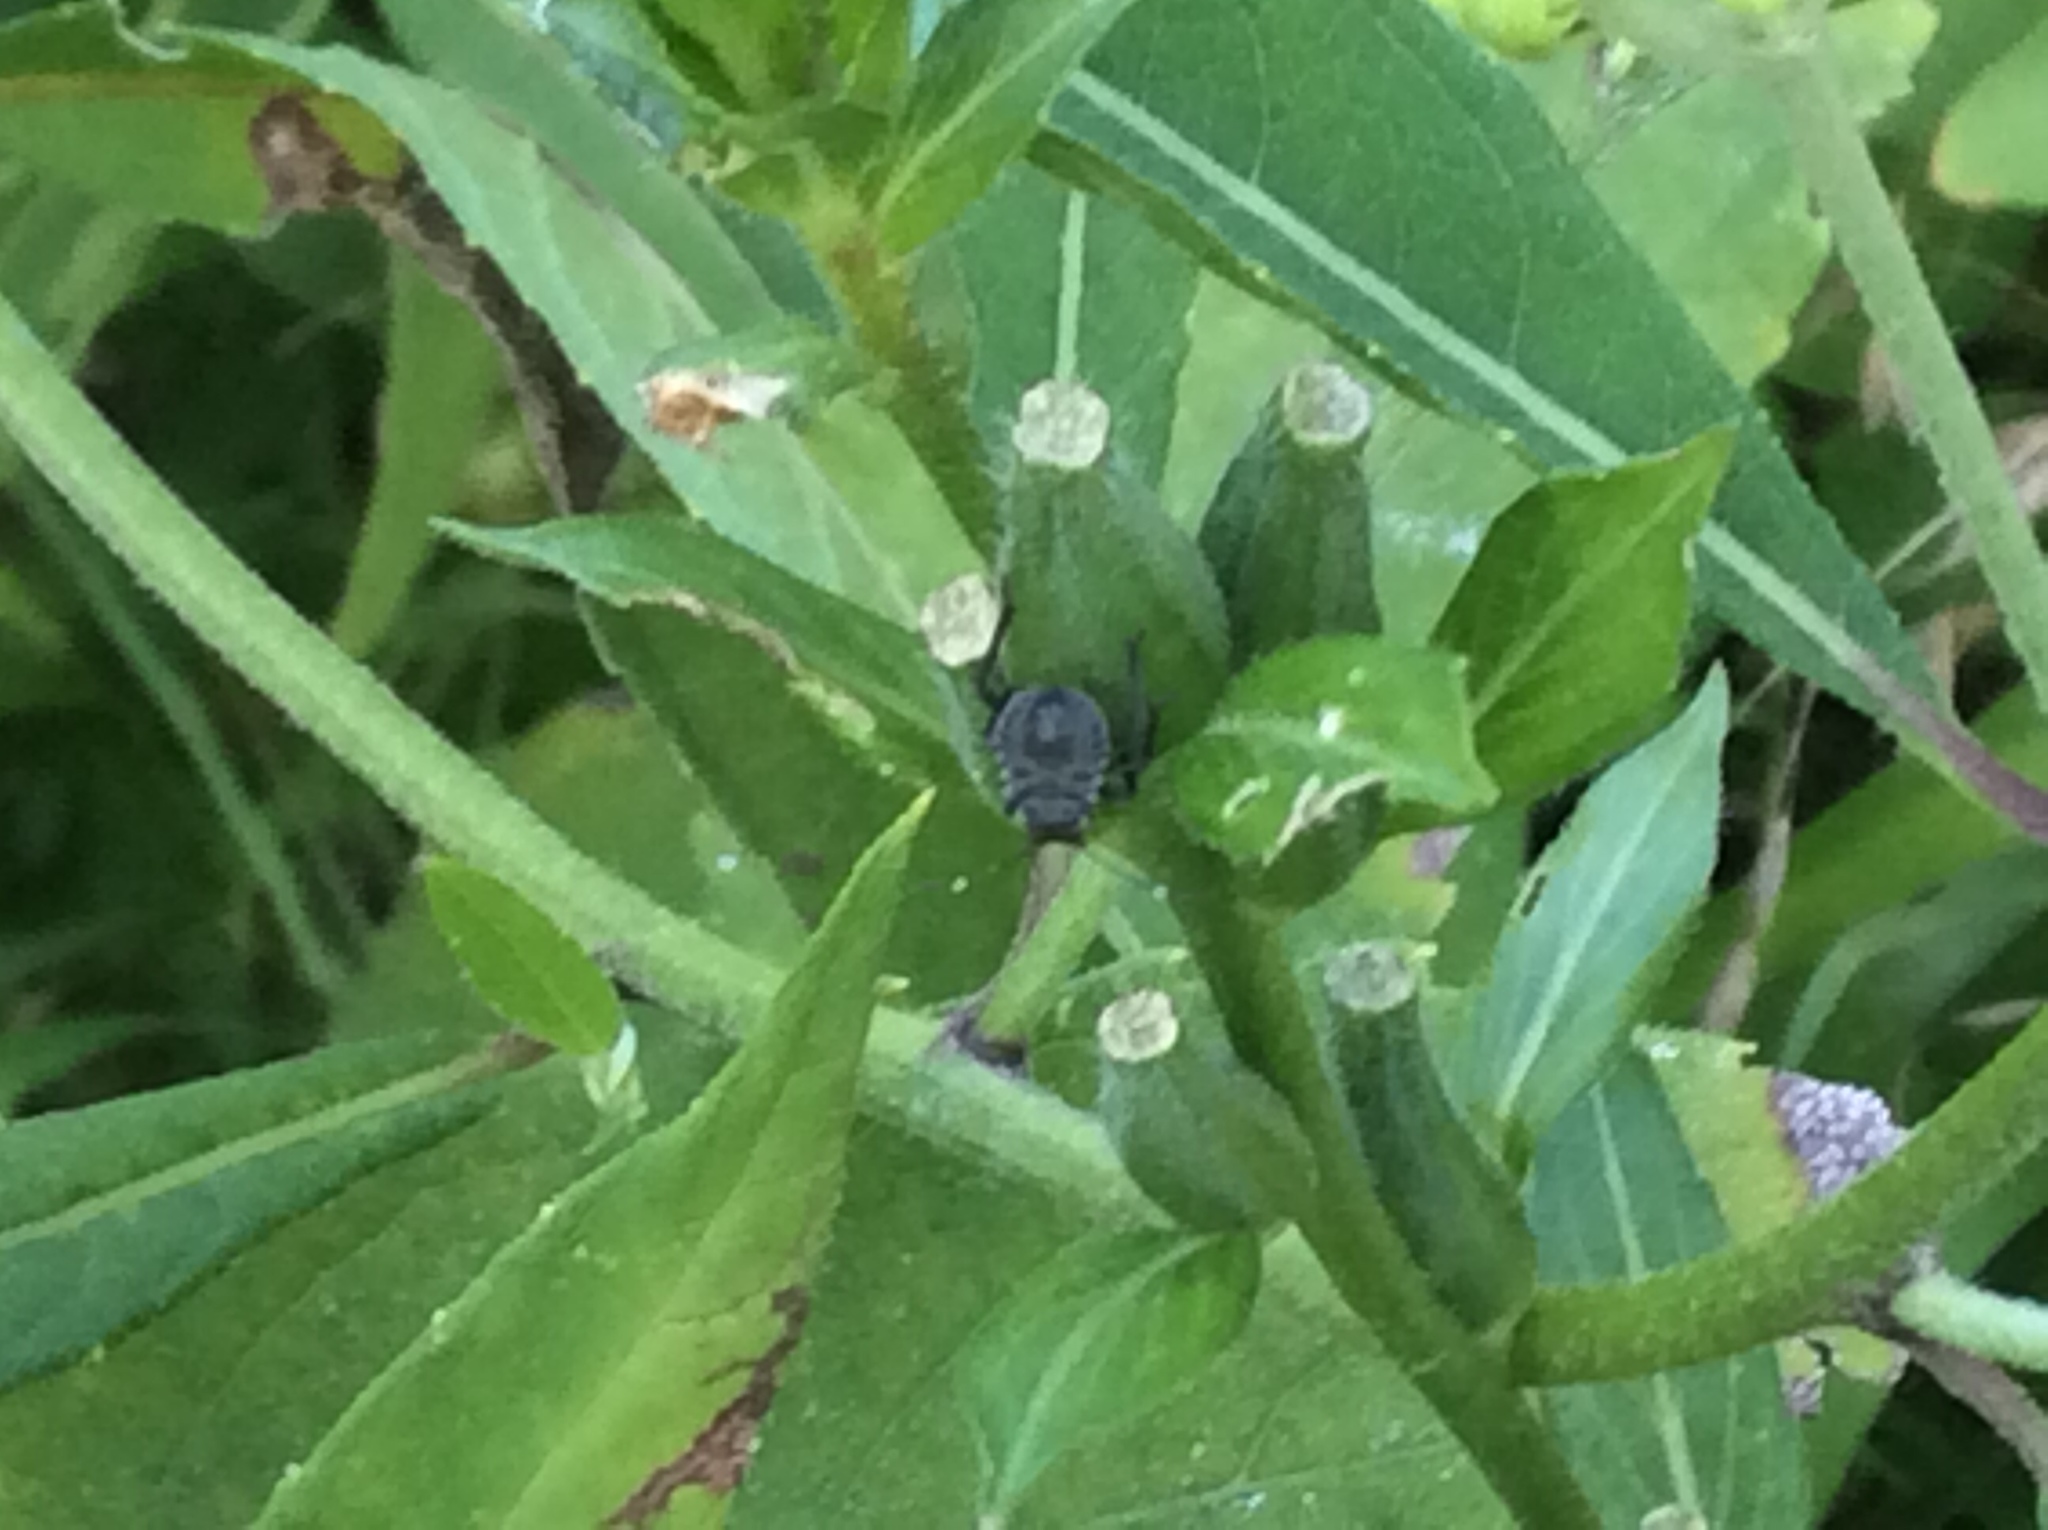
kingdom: Animalia
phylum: Arthropoda
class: Insecta
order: Hemiptera
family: Pentatomidae
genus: Halyomorpha
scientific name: Halyomorpha halys
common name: Brown marmorated stink bug
